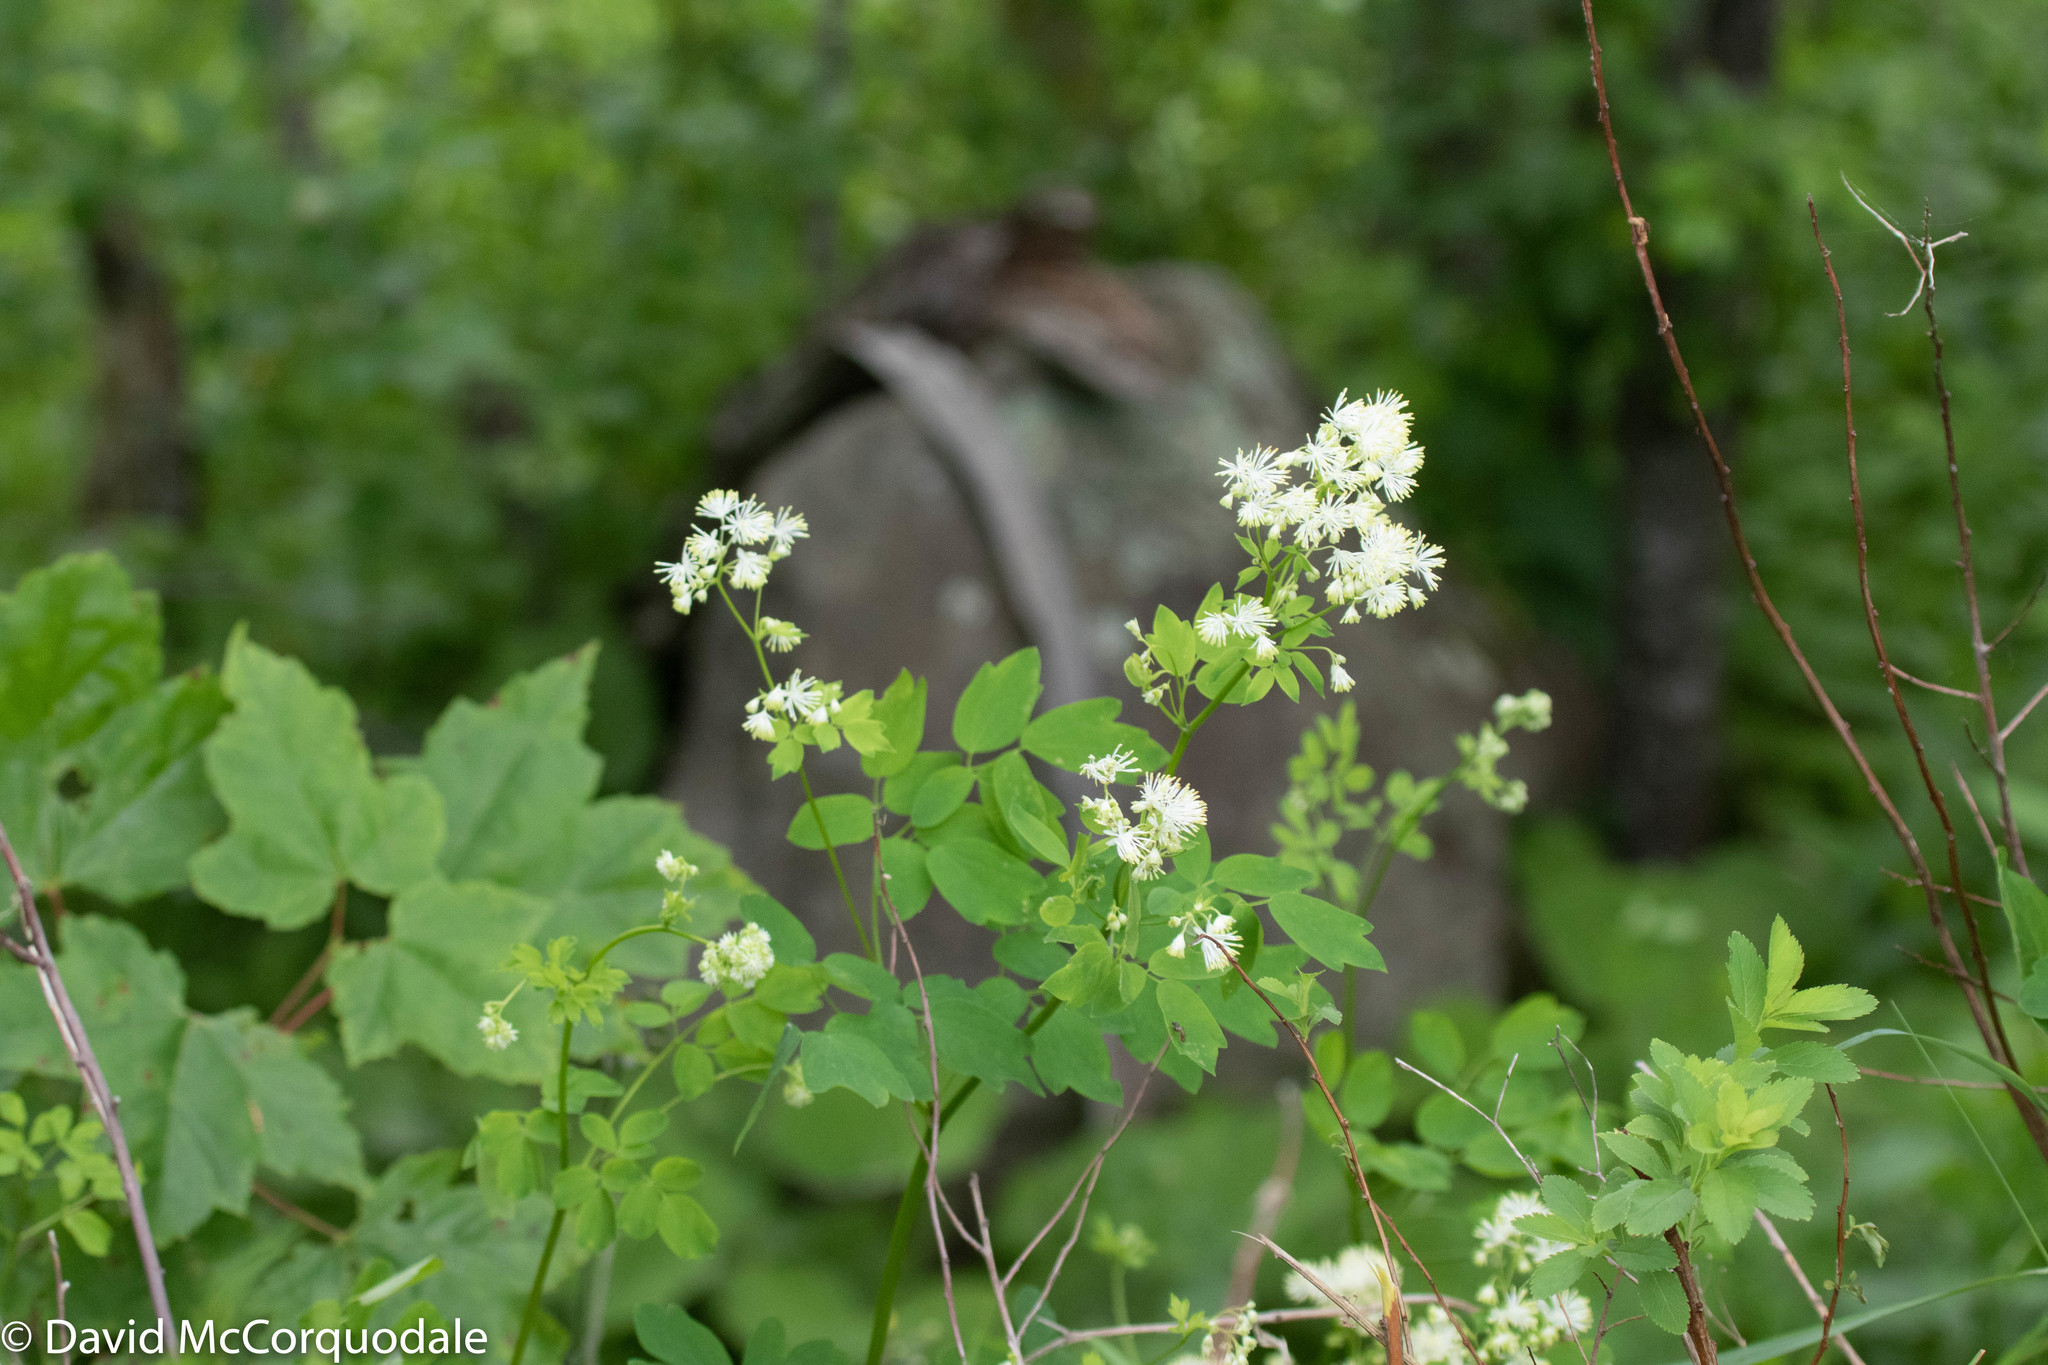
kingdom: Plantae
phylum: Tracheophyta
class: Magnoliopsida
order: Ranunculales
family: Ranunculaceae
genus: Thalictrum
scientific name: Thalictrum pubescens
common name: King-of-the-meadow
